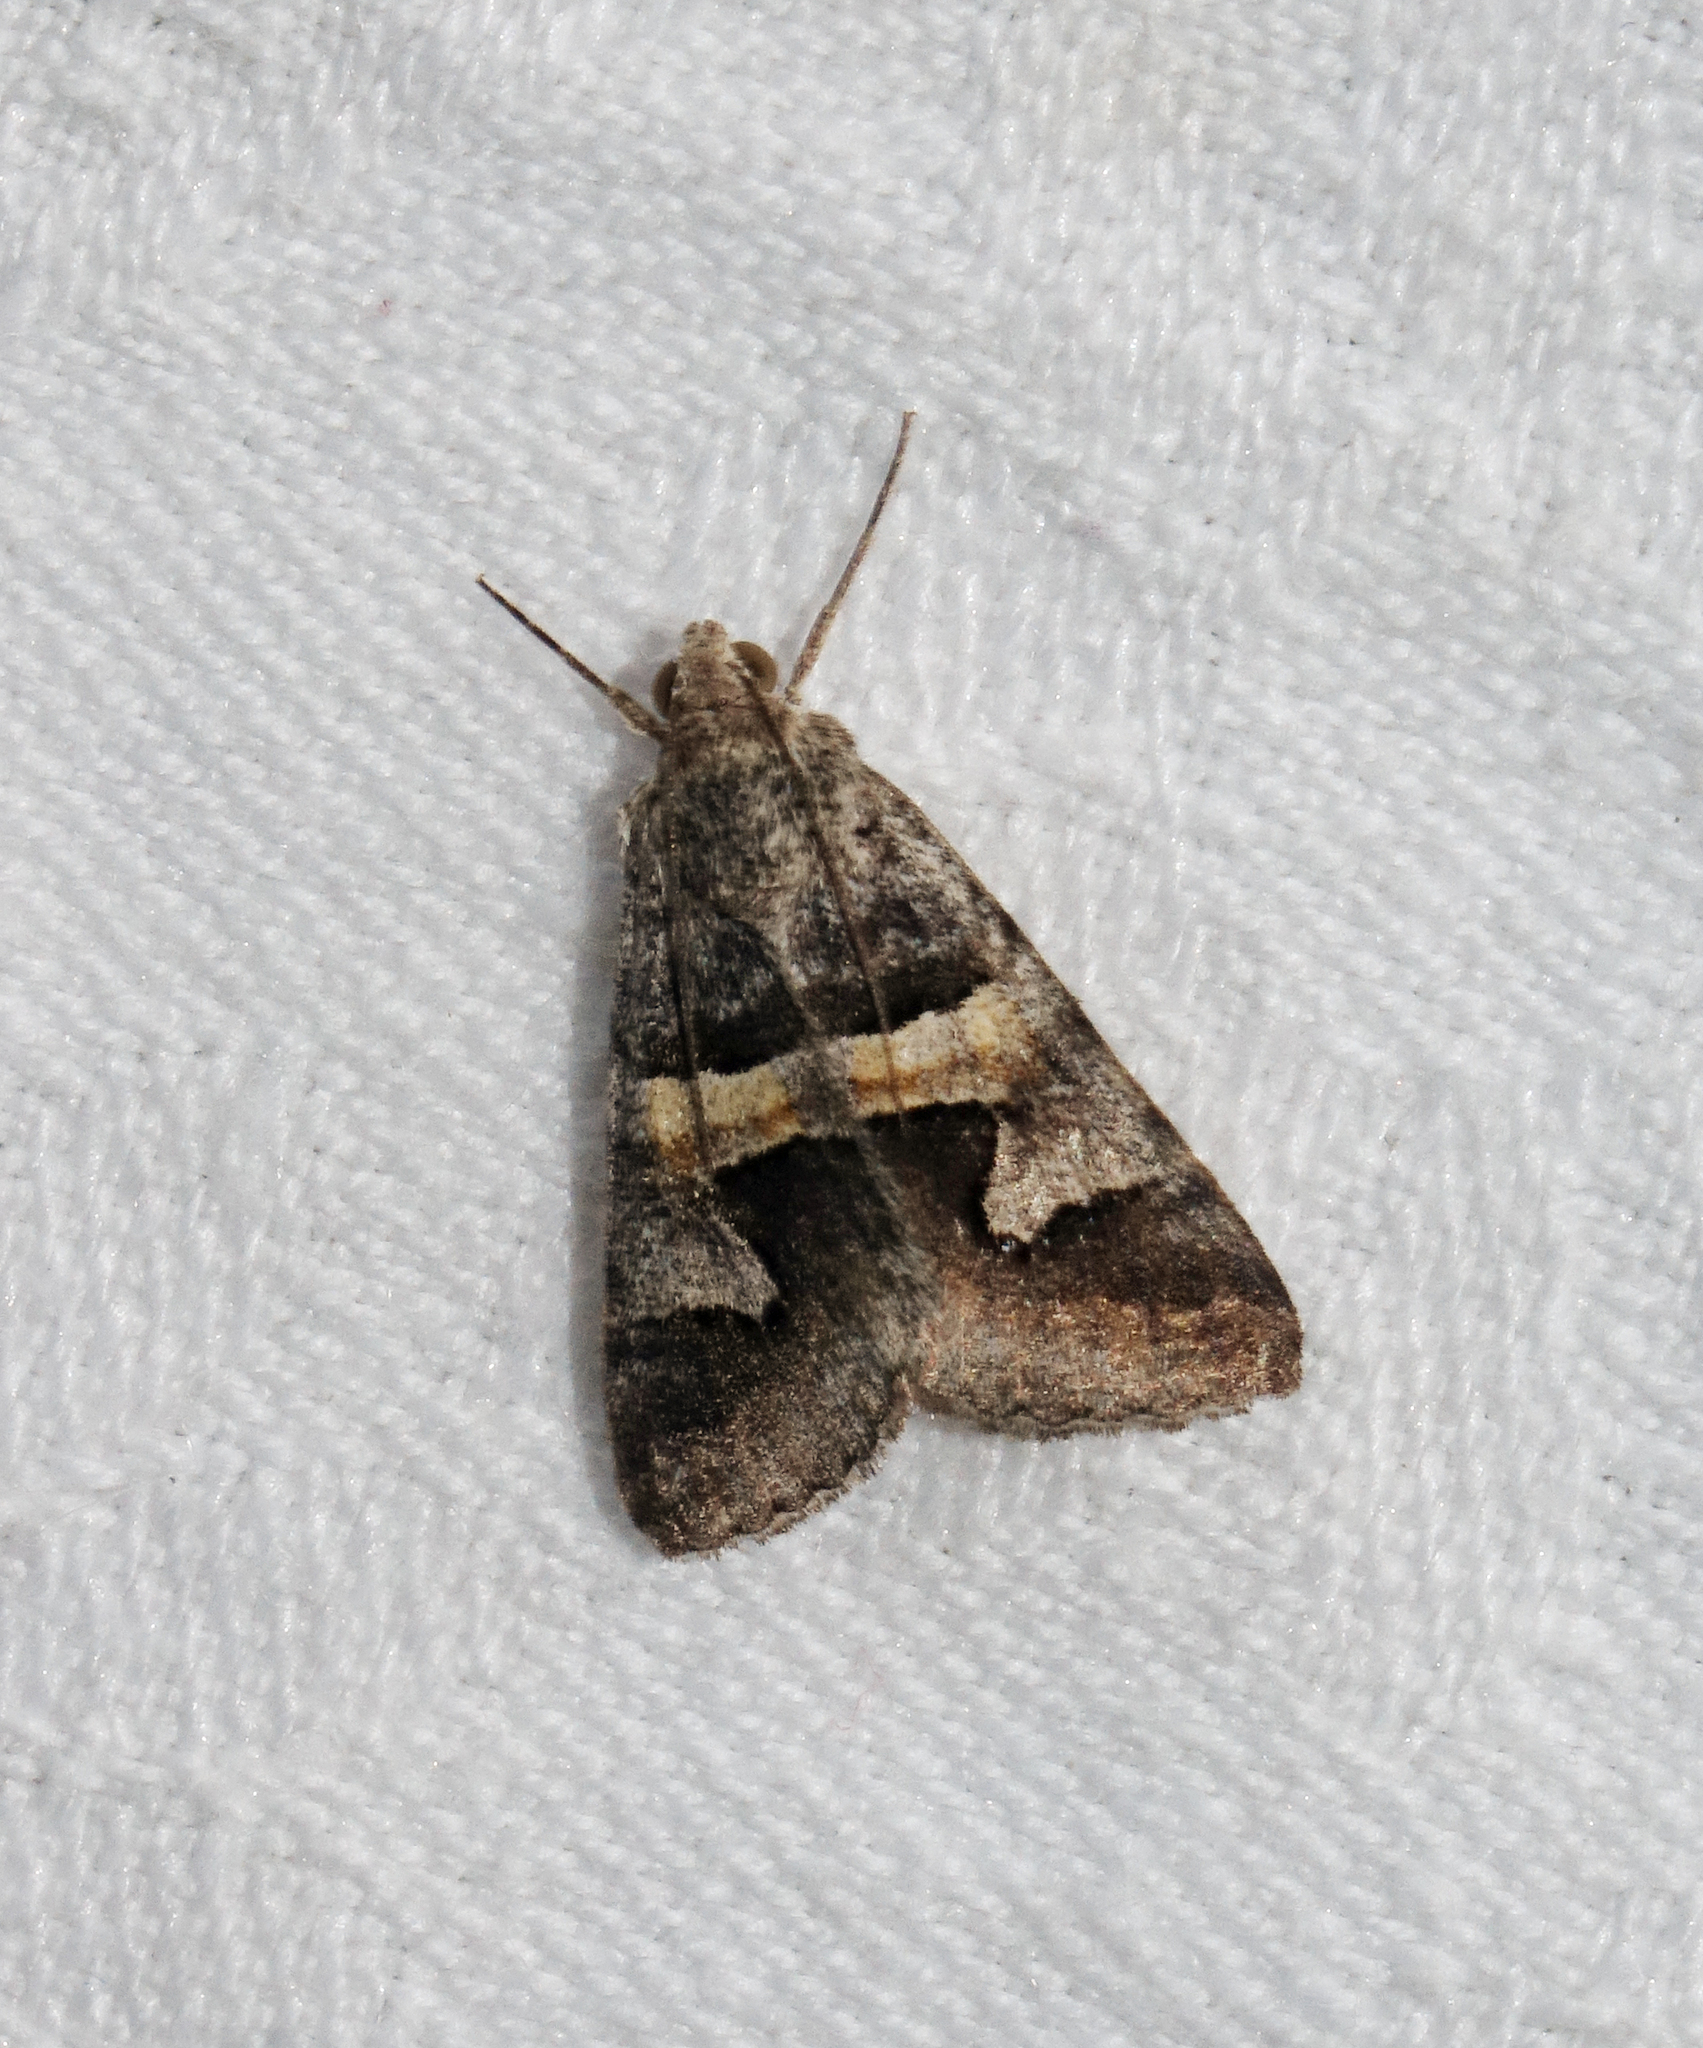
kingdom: Animalia
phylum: Arthropoda
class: Insecta
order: Lepidoptera
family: Erebidae
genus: Drasteria
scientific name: Drasteria caucasica
